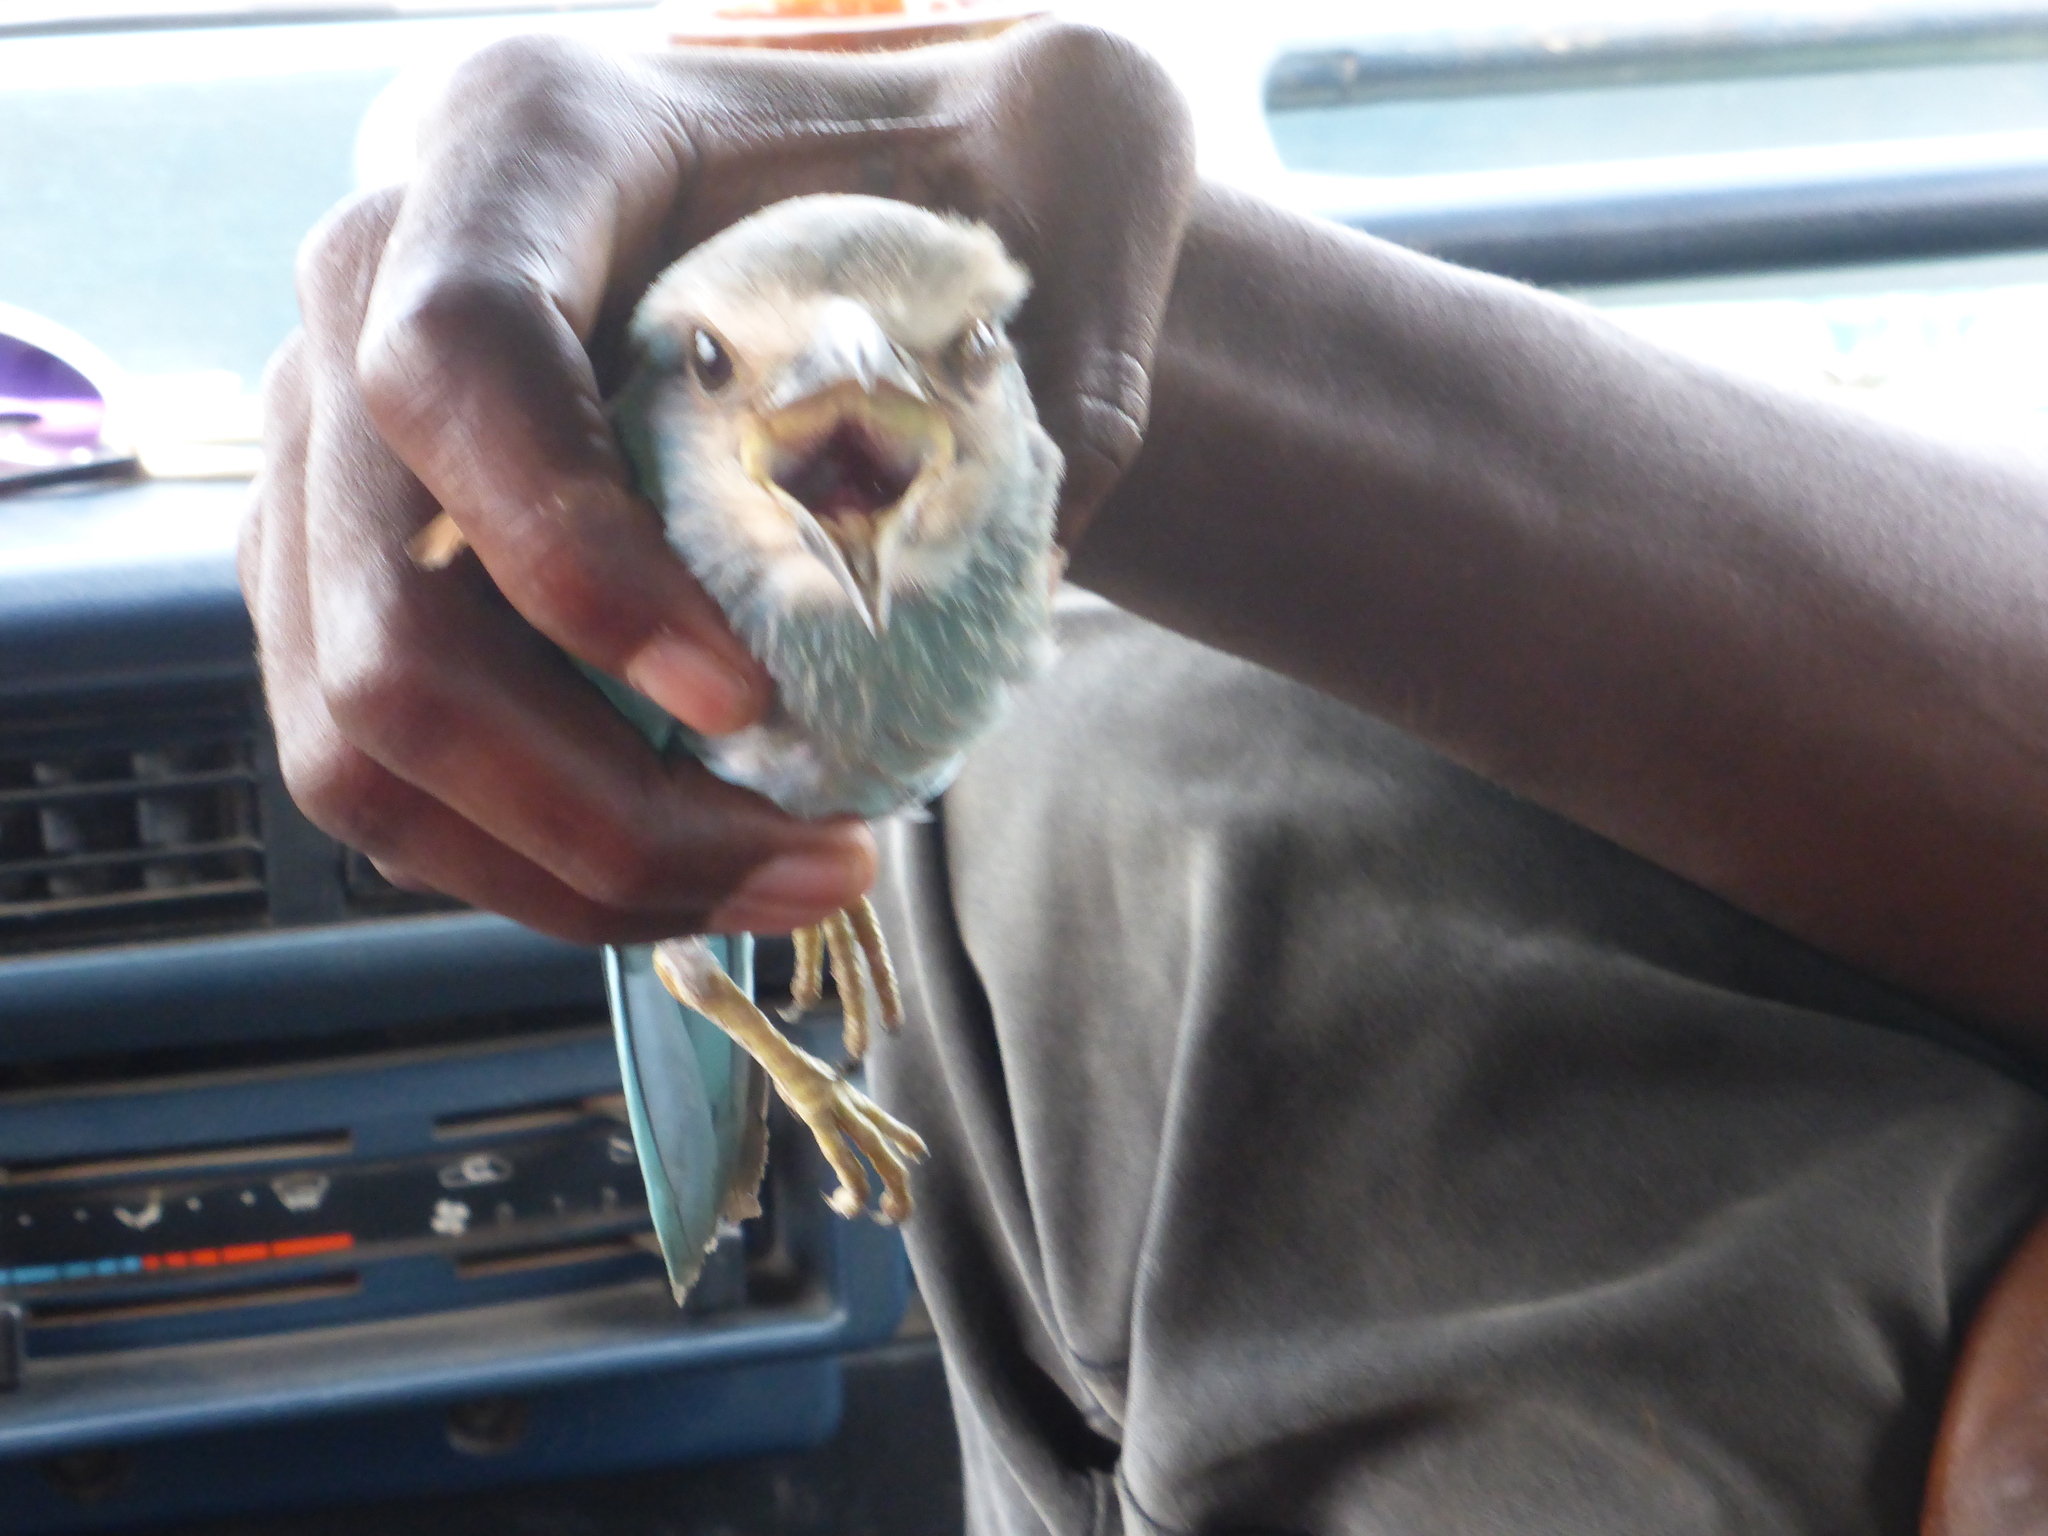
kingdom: Animalia
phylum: Chordata
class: Aves
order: Coraciiformes
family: Coraciidae
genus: Coracias
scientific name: Coracias abyssinicus
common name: Abyssinian roller
